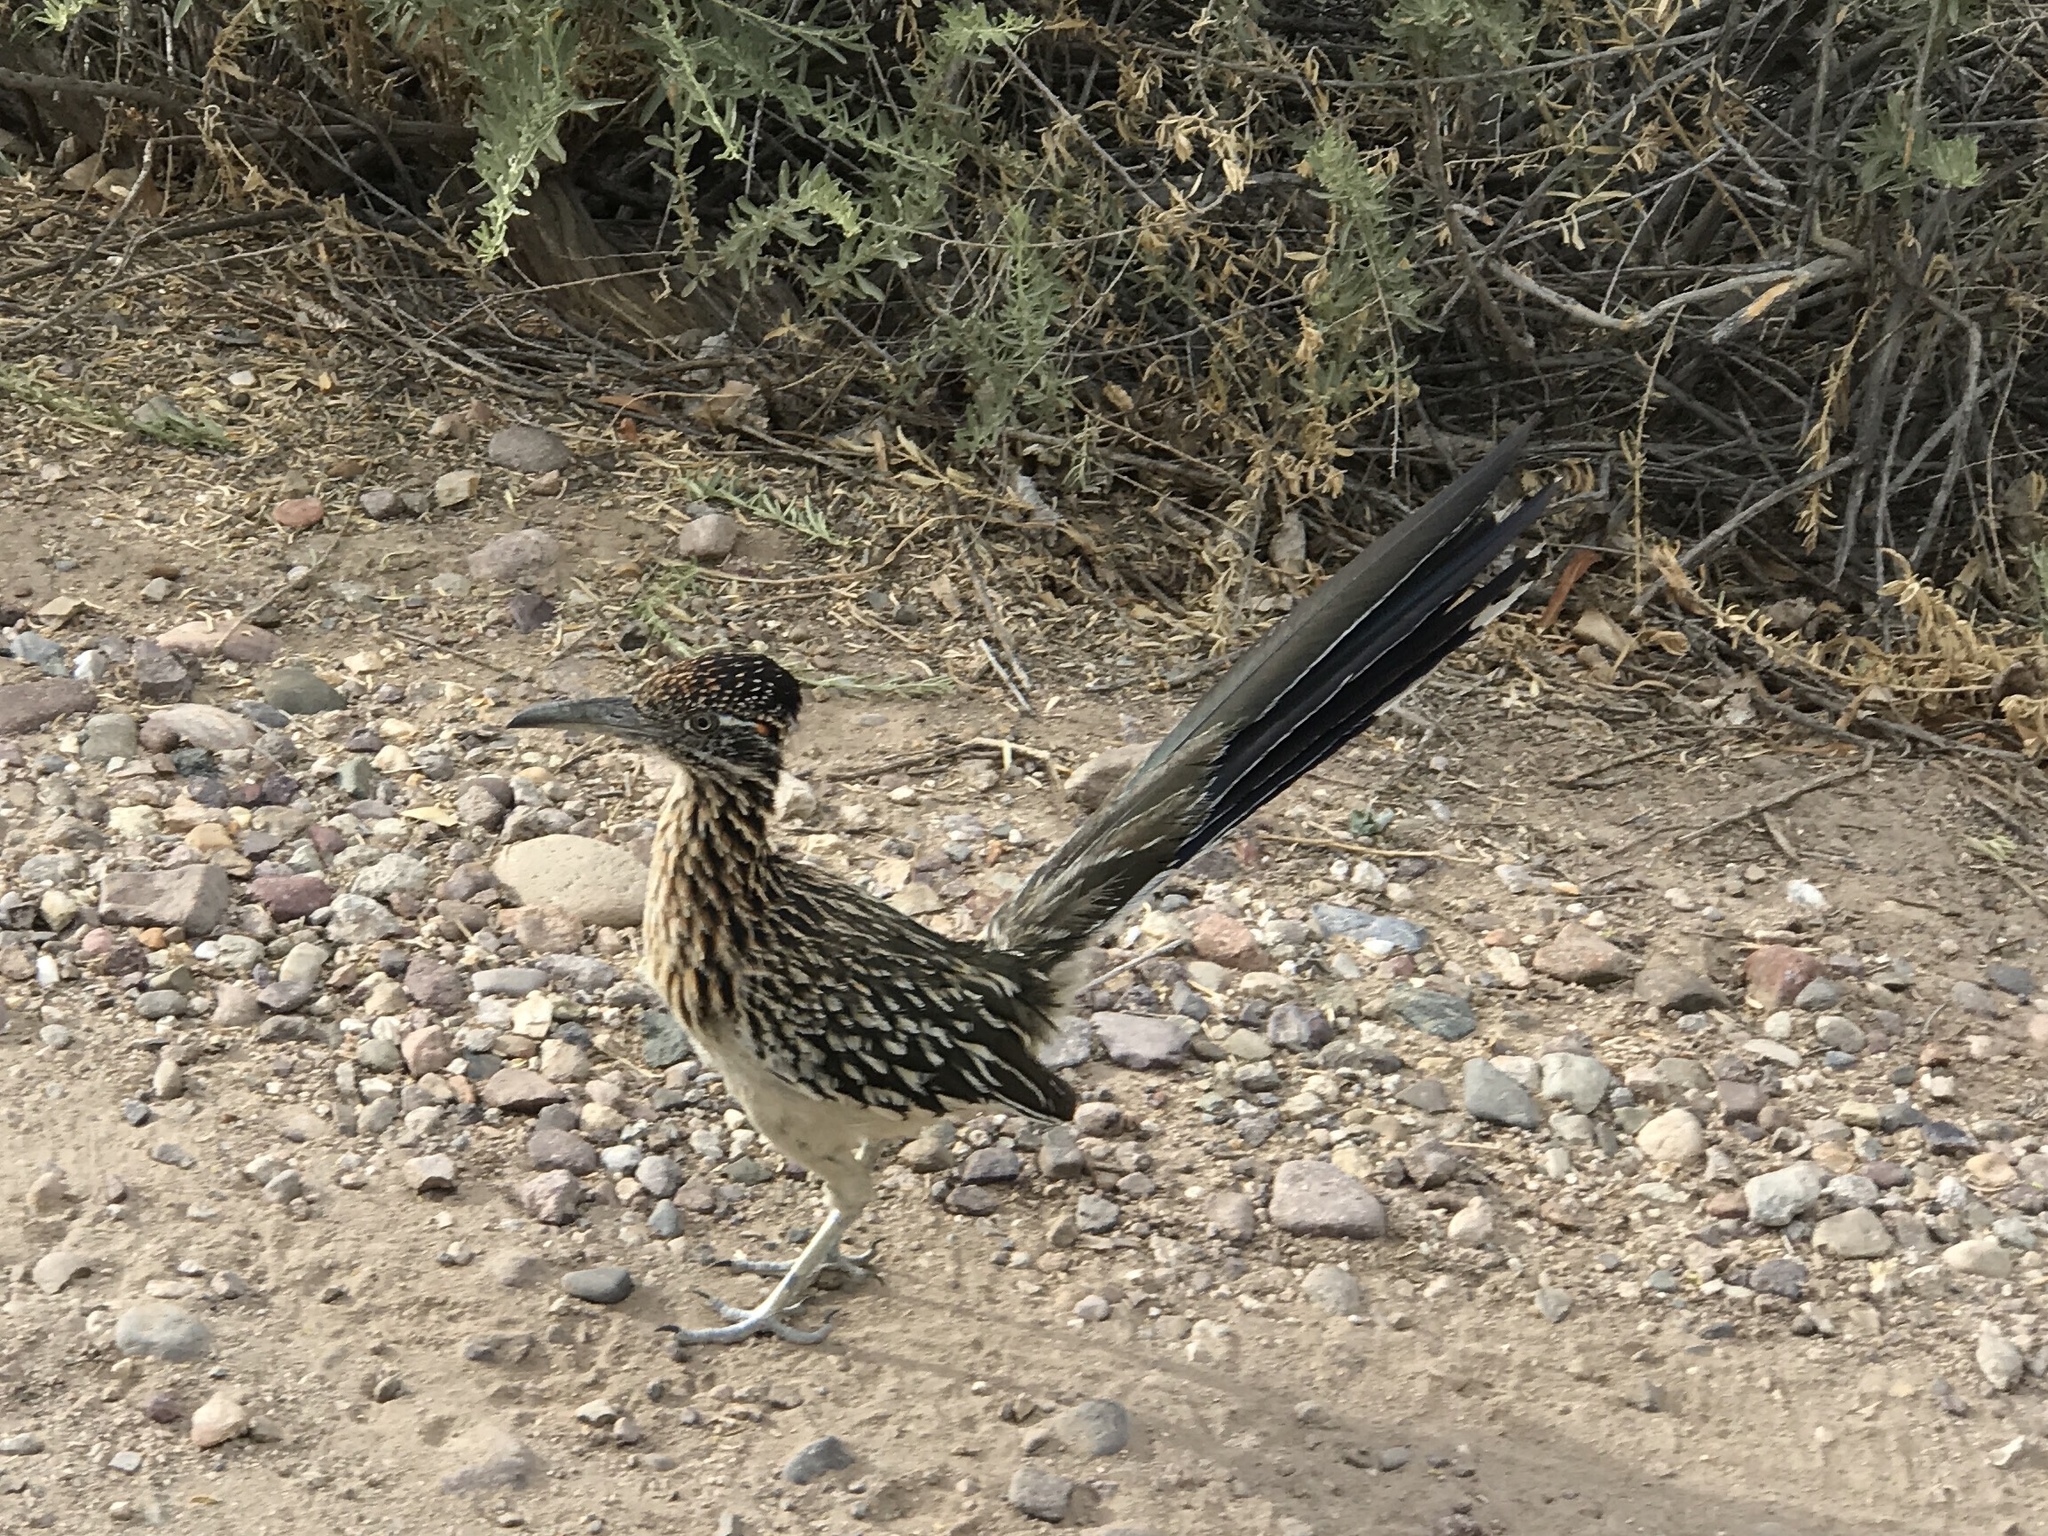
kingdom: Animalia
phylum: Chordata
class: Aves
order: Cuculiformes
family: Cuculidae
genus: Geococcyx
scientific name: Geococcyx californianus
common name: Greater roadrunner
